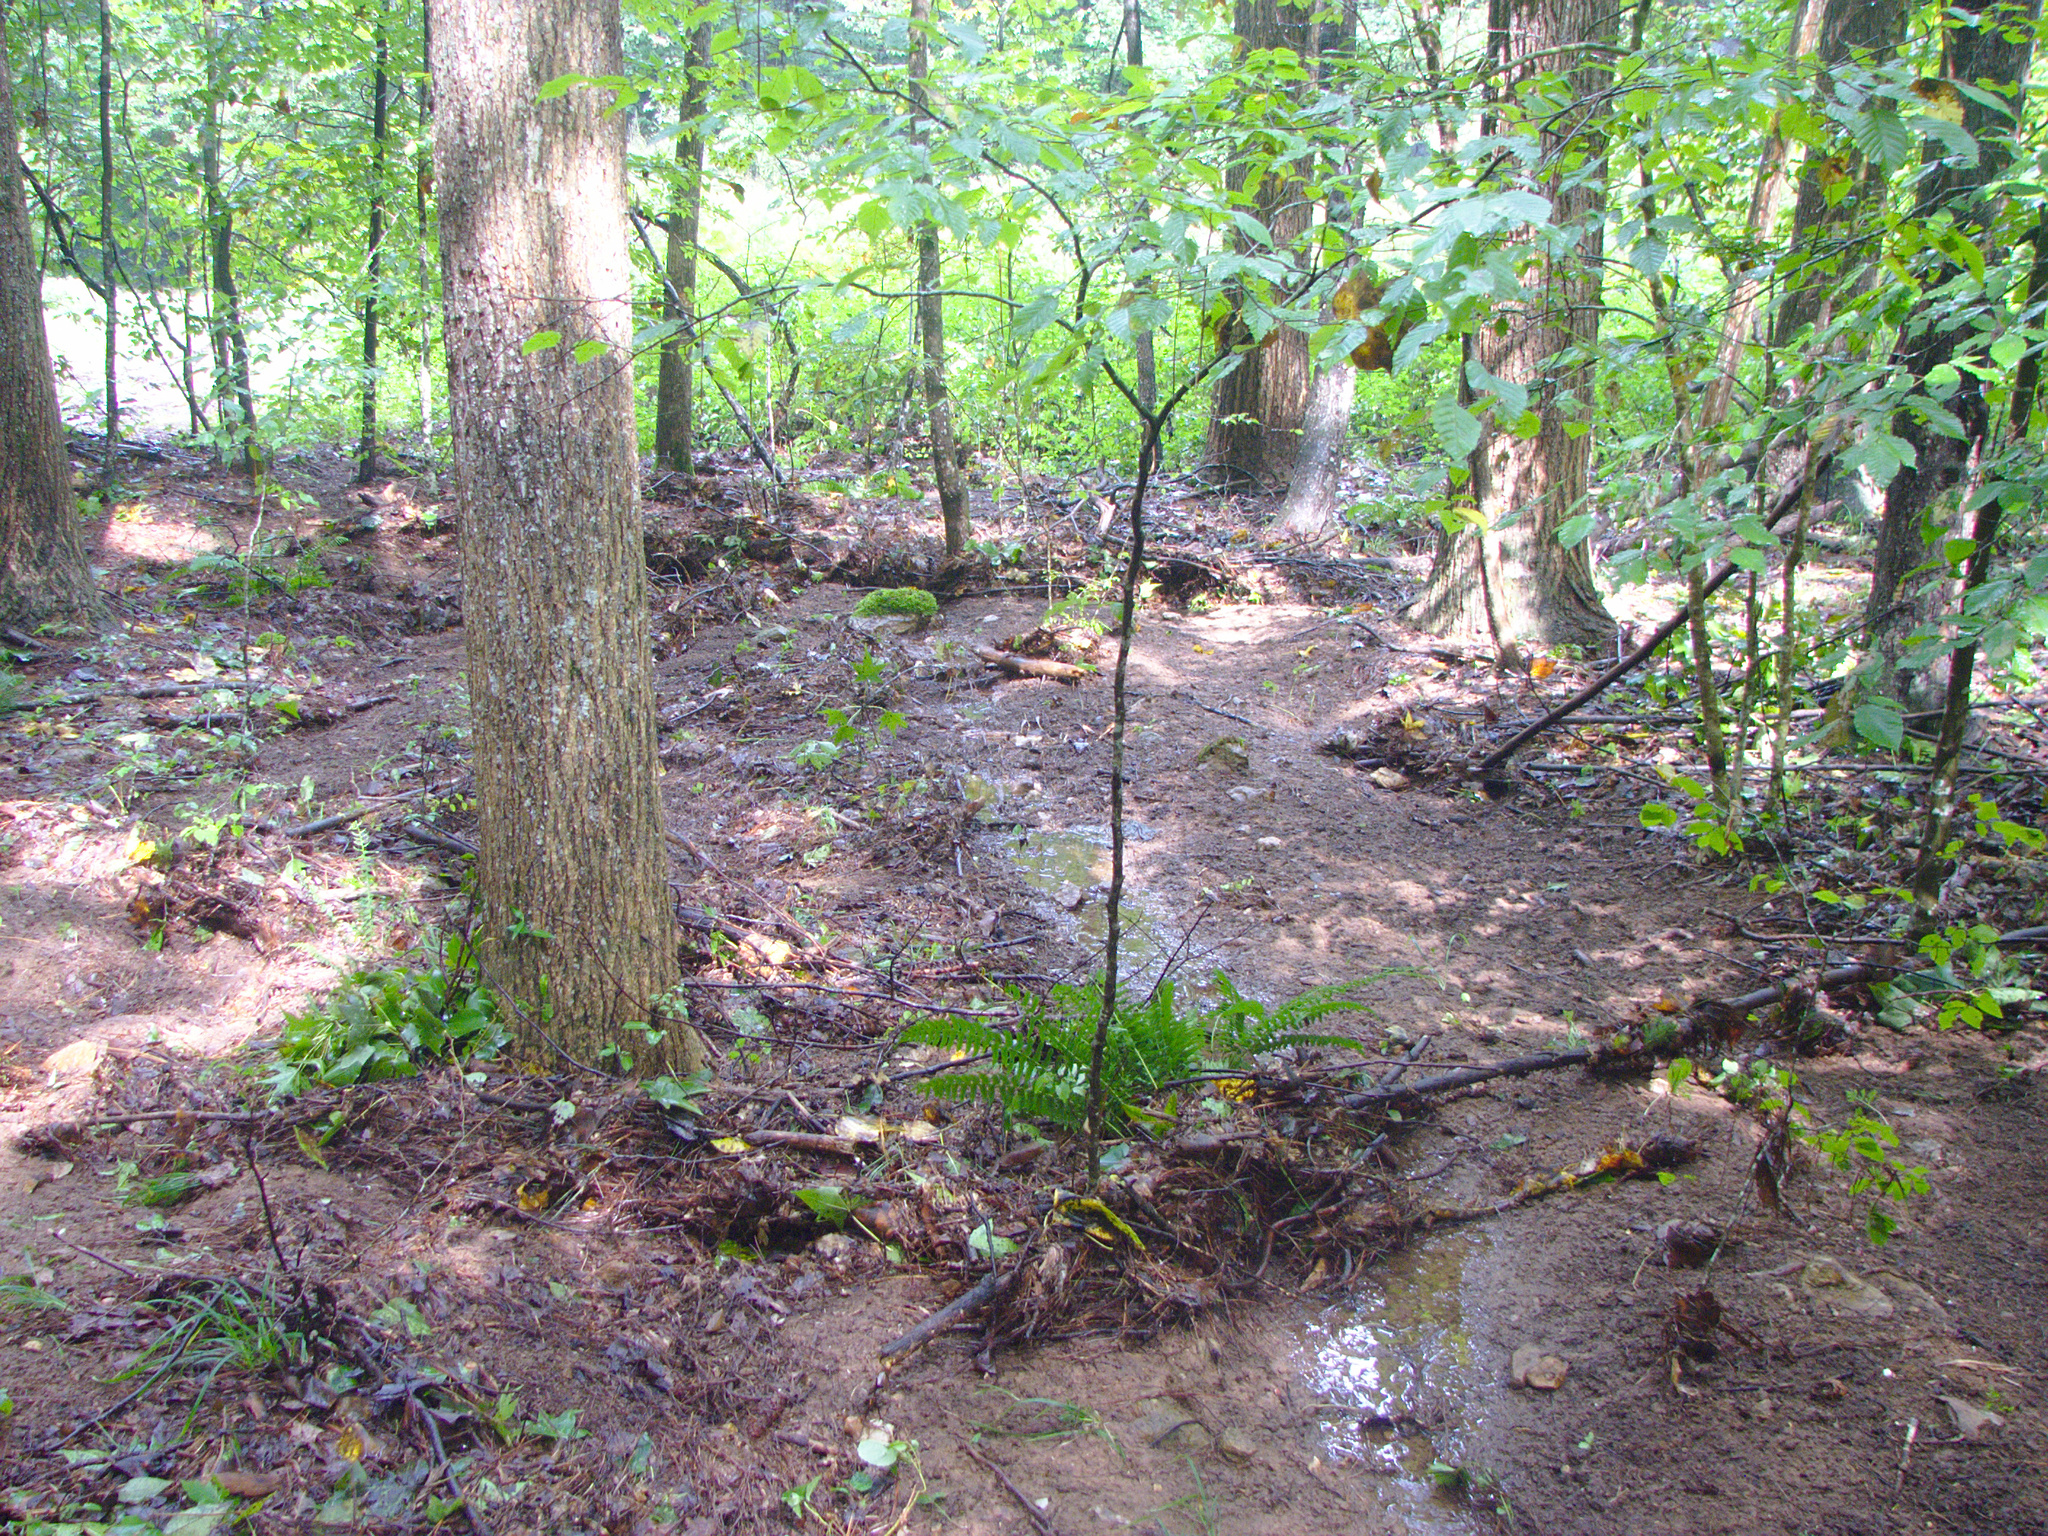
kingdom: Plantae
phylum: Tracheophyta
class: Polypodiopsida
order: Polypodiales
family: Dryopteridaceae
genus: Polystichum
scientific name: Polystichum acrostichoides
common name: Christmas fern
